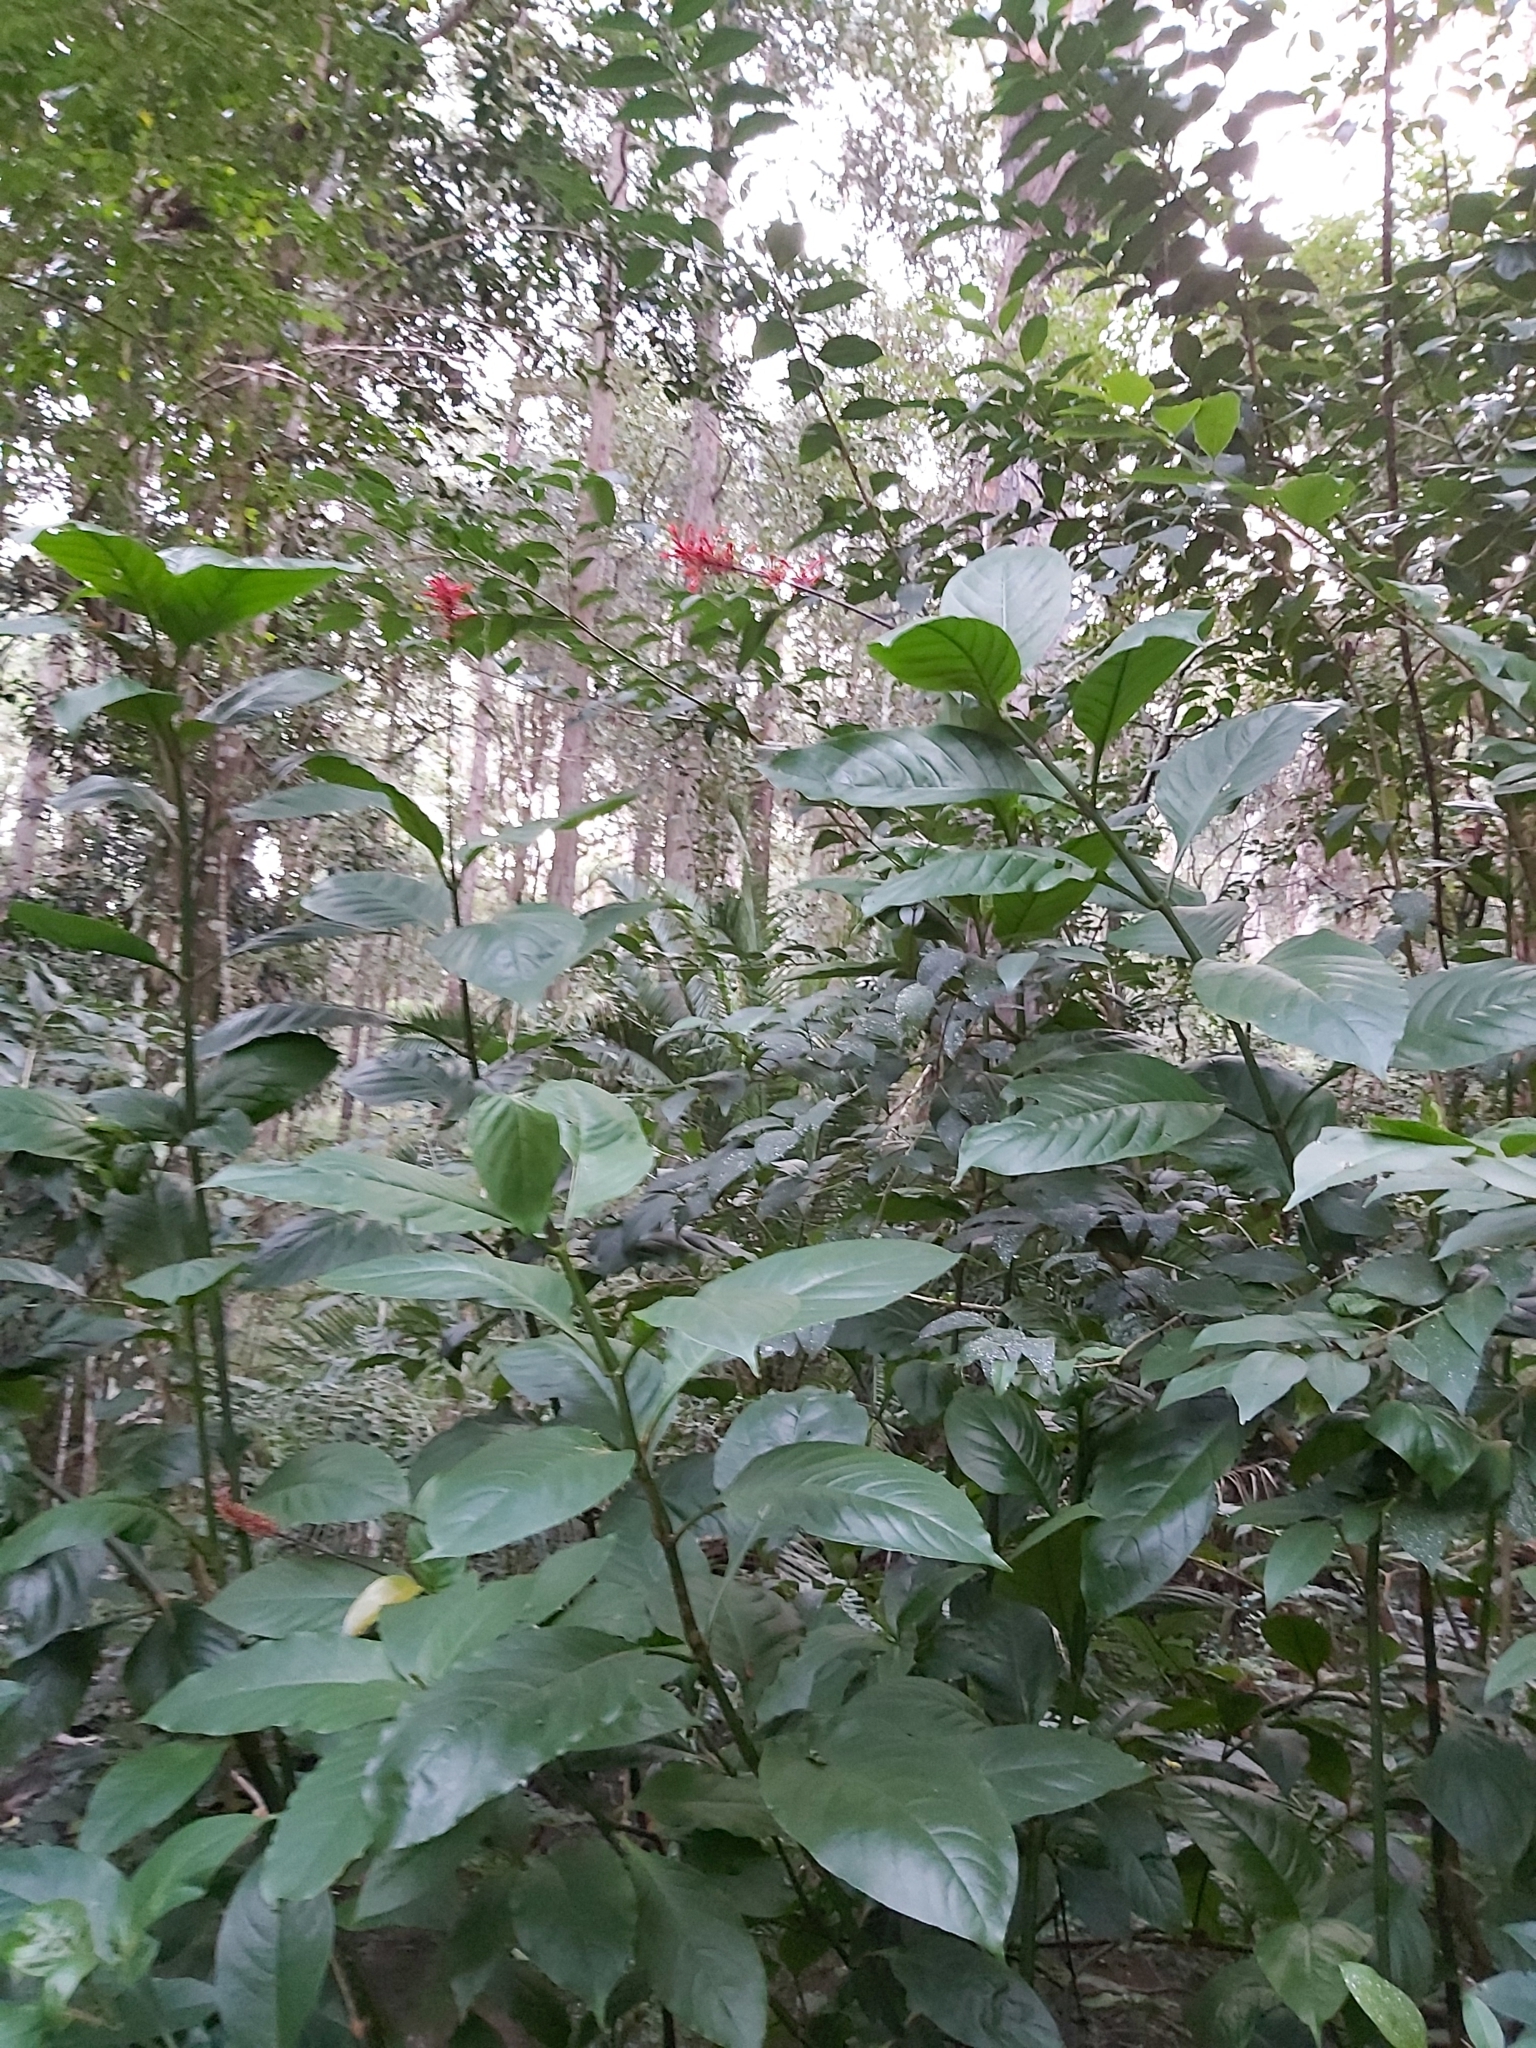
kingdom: Plantae
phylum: Tracheophyta
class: Magnoliopsida
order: Lamiales
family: Acanthaceae
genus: Odontonema
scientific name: Odontonema cuspidatum
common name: Mottled toothedthread
